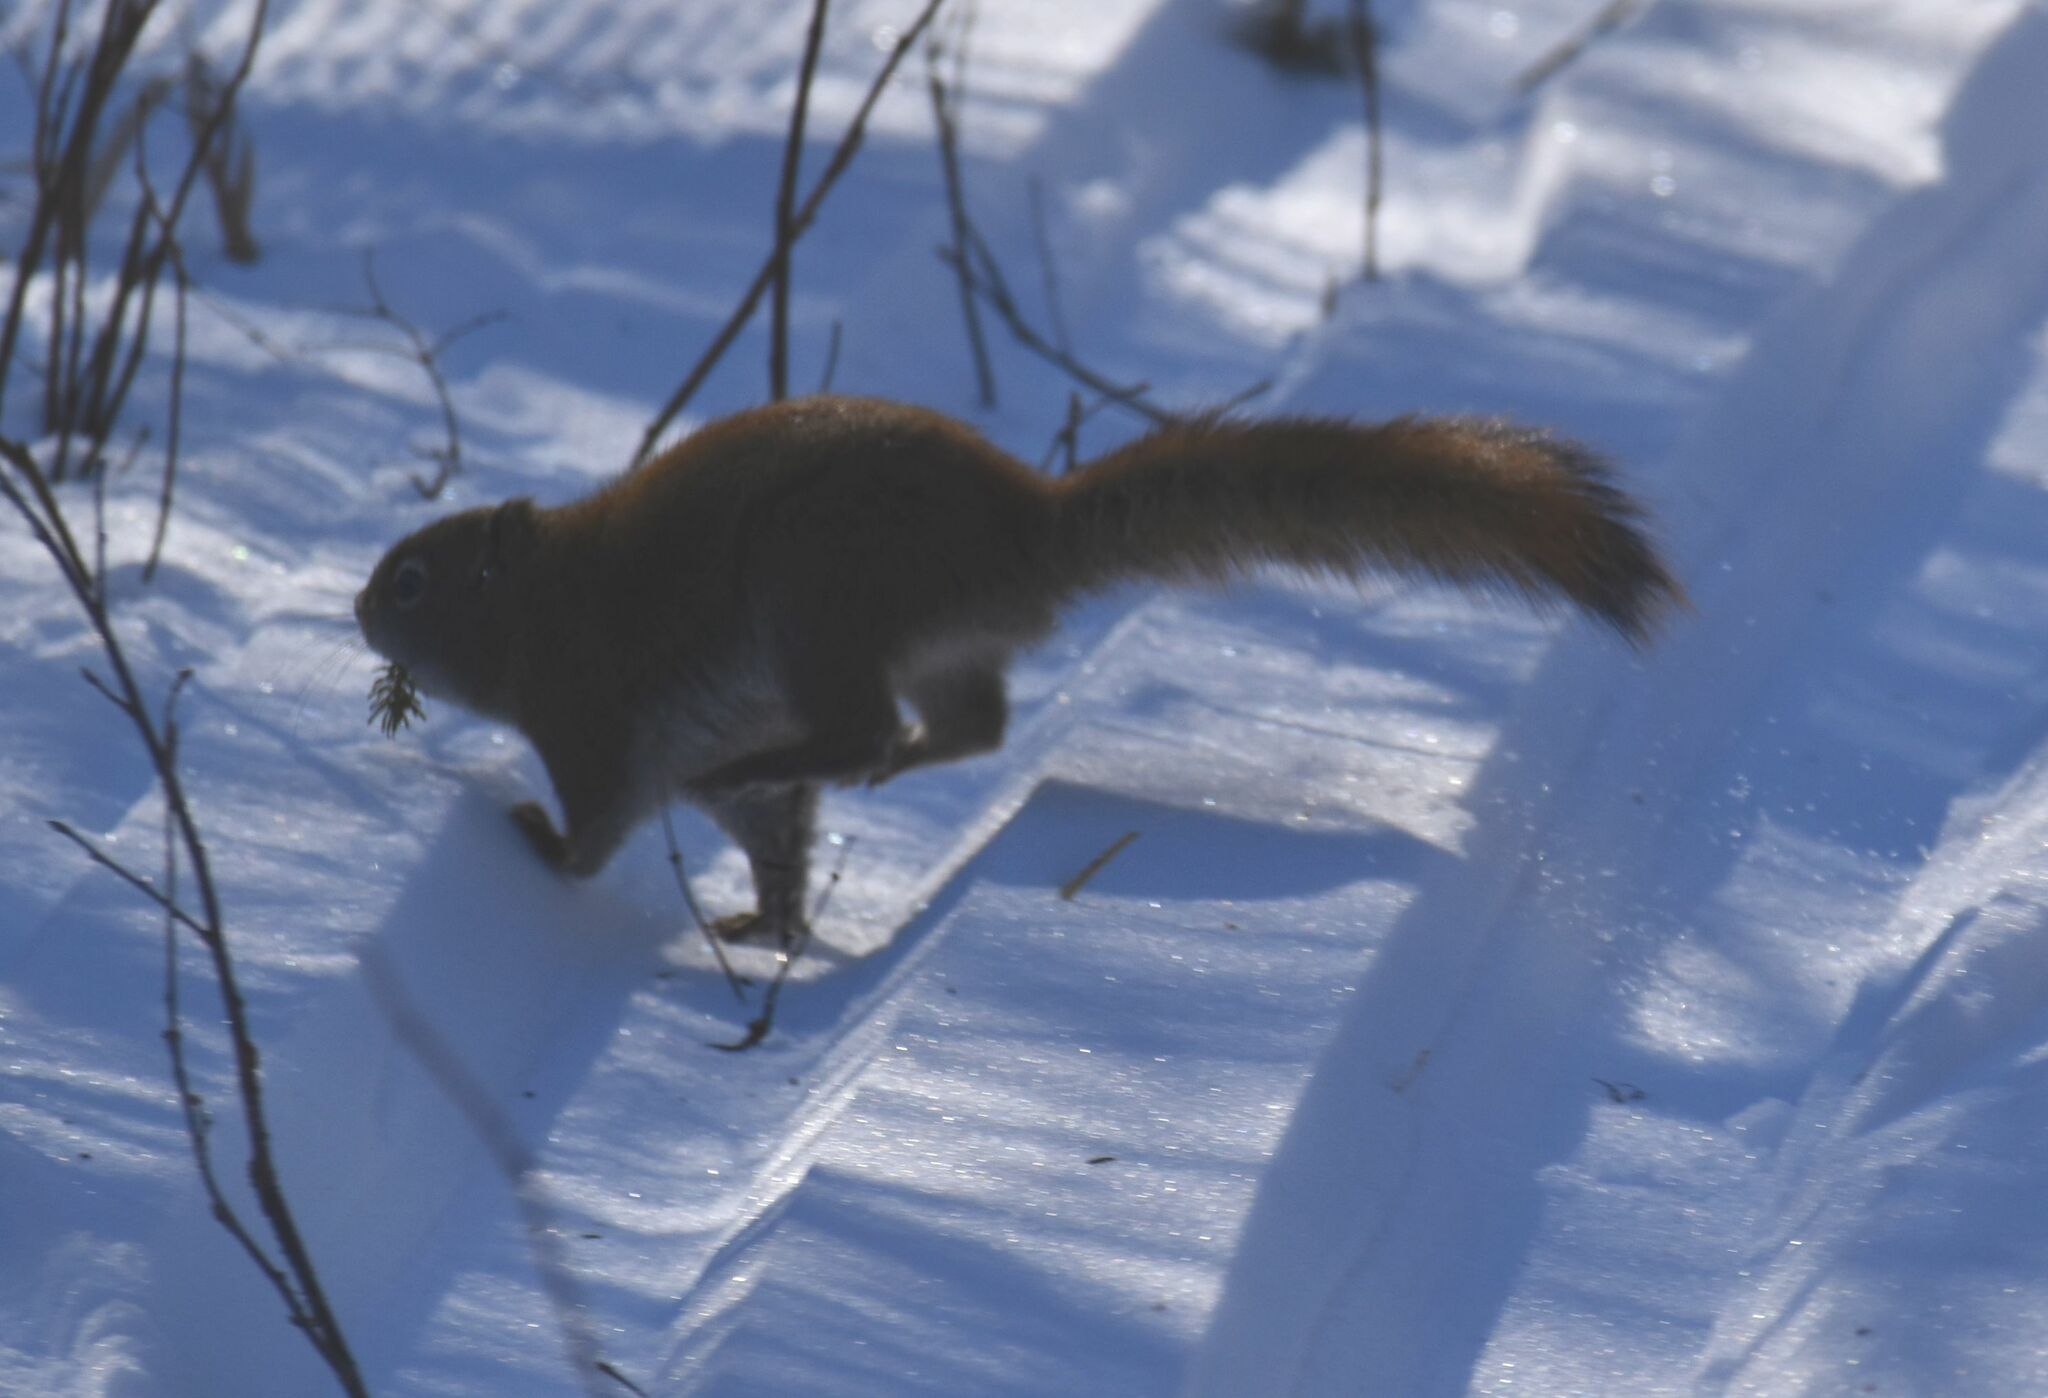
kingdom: Animalia
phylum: Chordata
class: Mammalia
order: Rodentia
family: Sciuridae
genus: Tamiasciurus
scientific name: Tamiasciurus hudsonicus
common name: Red squirrel
